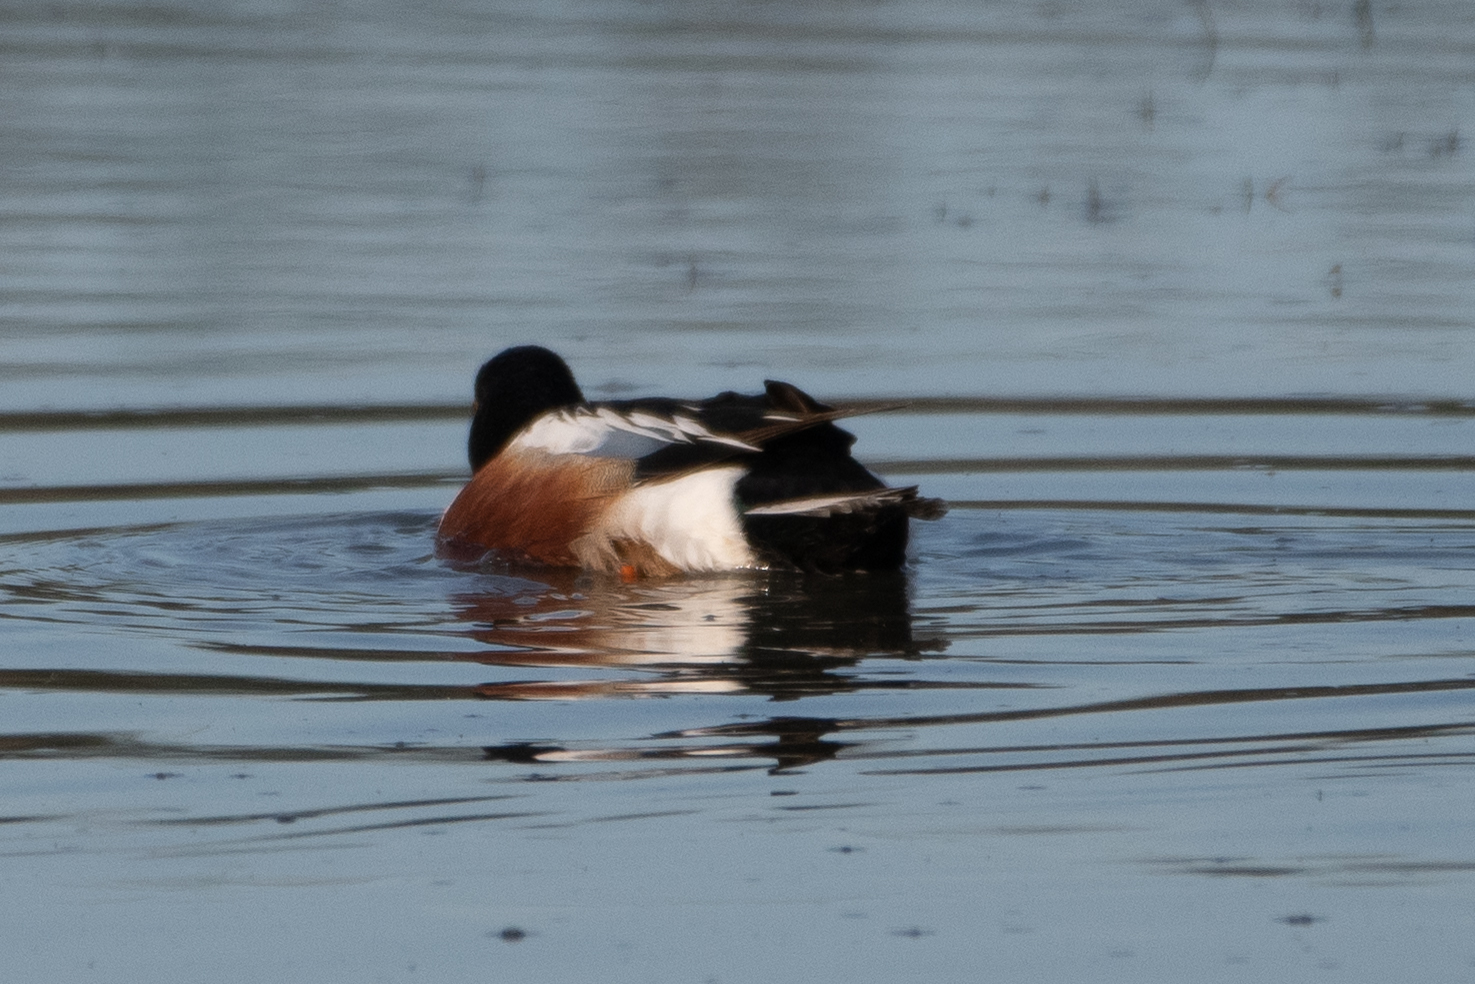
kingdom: Animalia
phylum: Chordata
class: Aves
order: Anseriformes
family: Anatidae
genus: Spatula
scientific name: Spatula clypeata
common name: Northern shoveler
